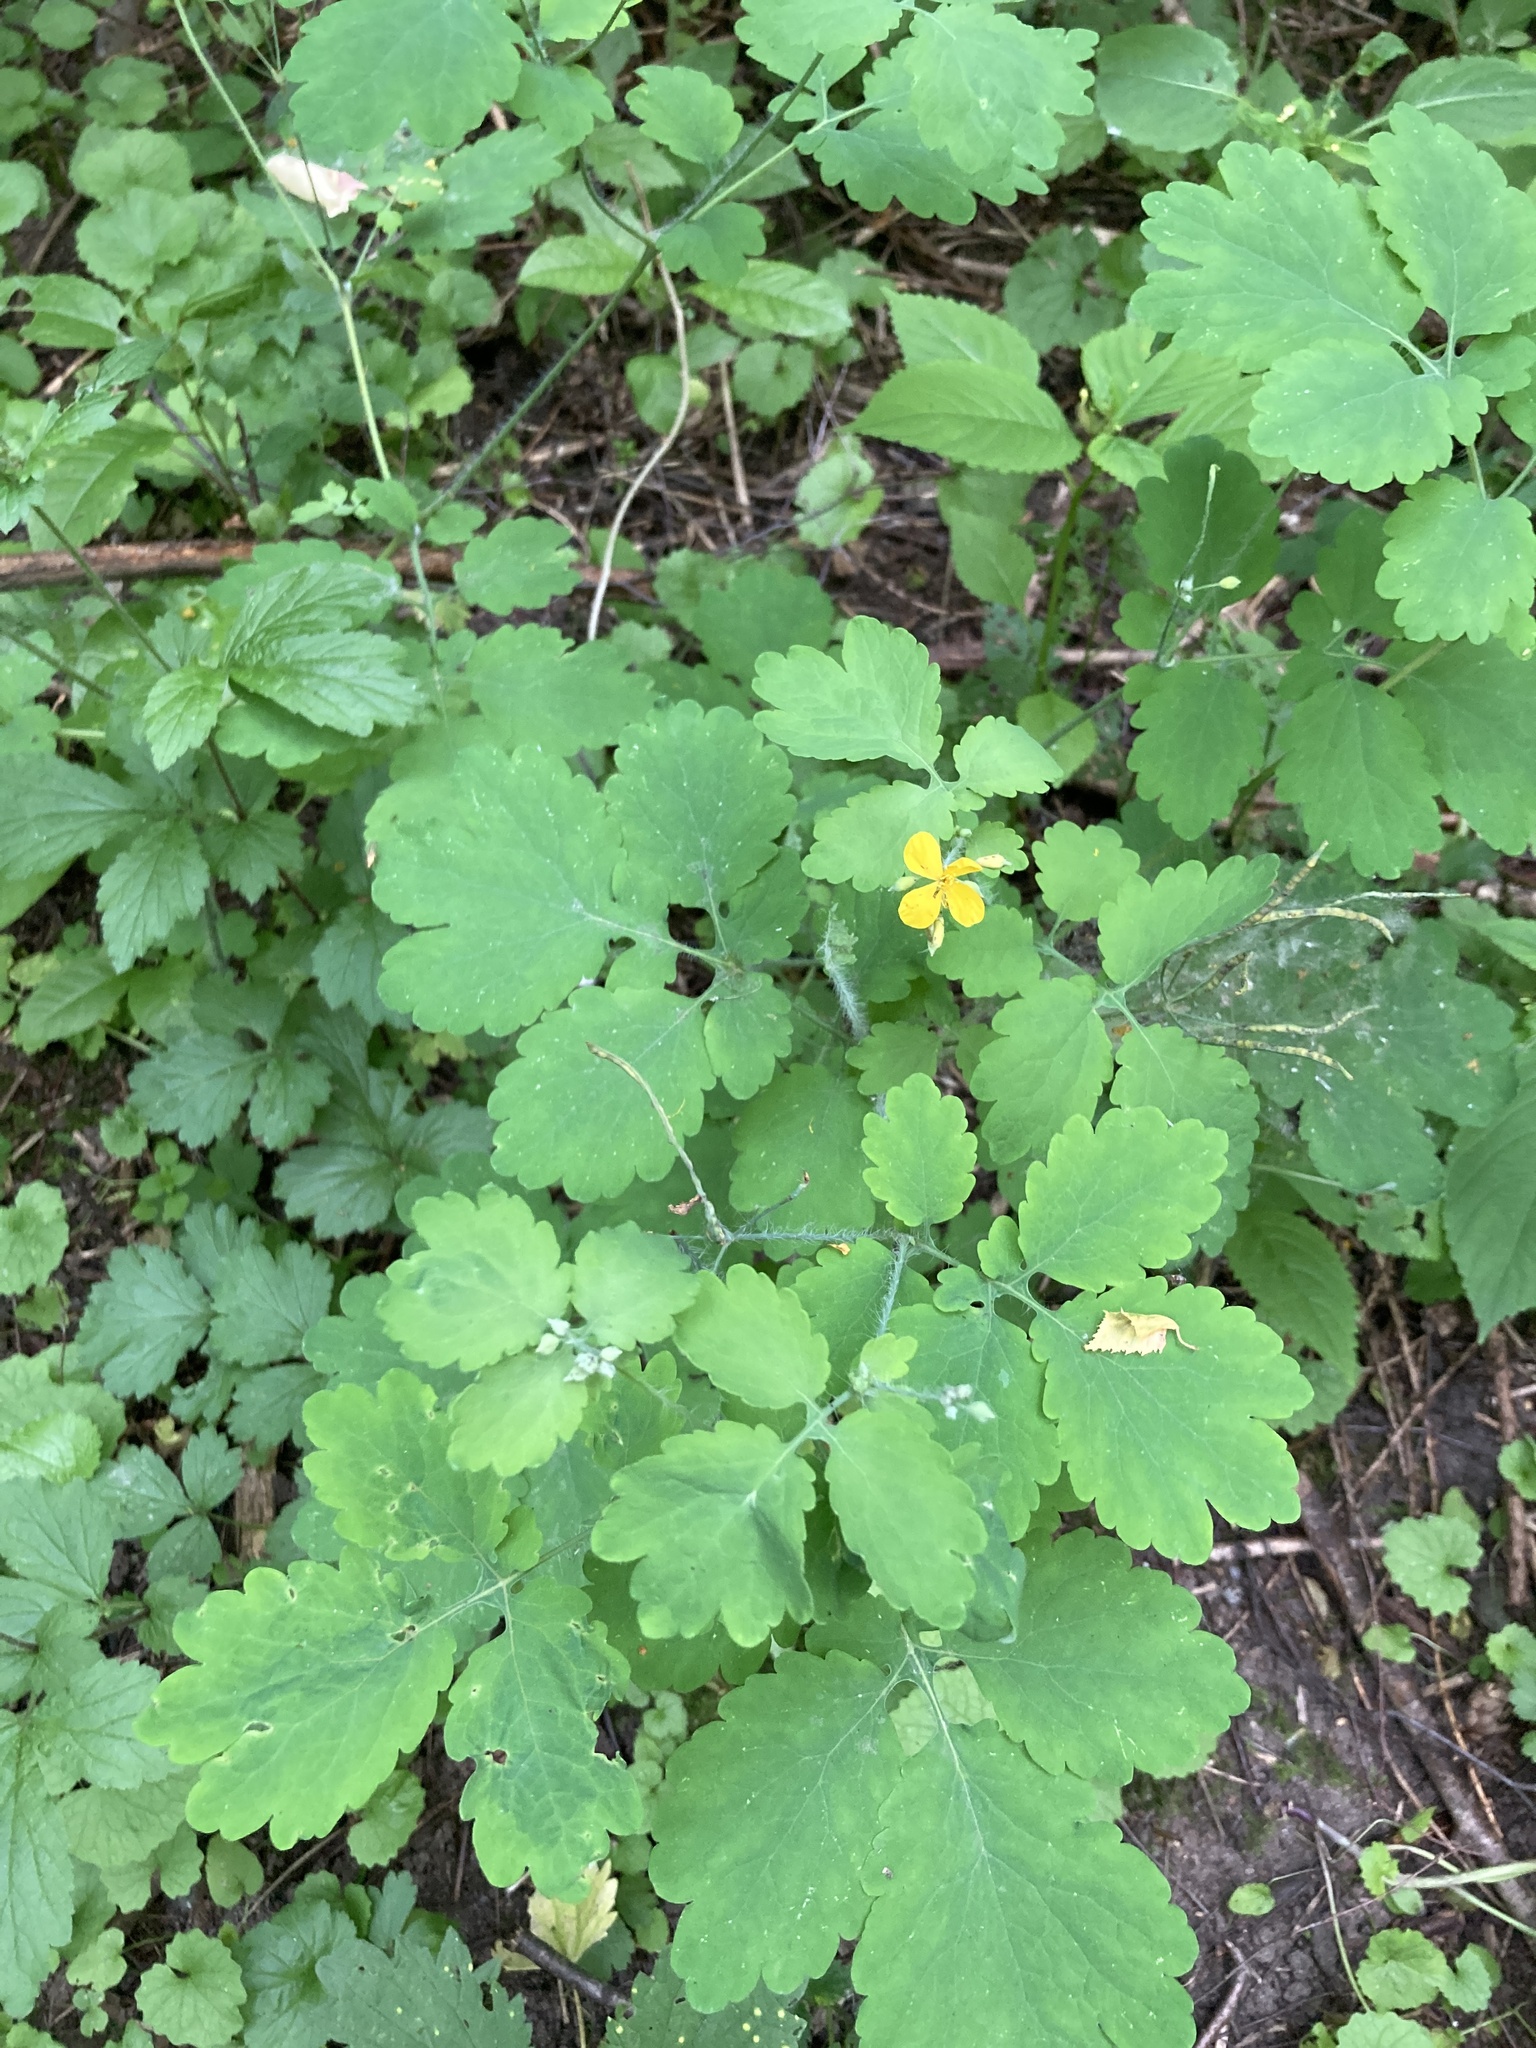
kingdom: Plantae
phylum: Tracheophyta
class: Magnoliopsida
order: Ranunculales
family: Papaveraceae
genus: Chelidonium
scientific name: Chelidonium majus
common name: Greater celandine
